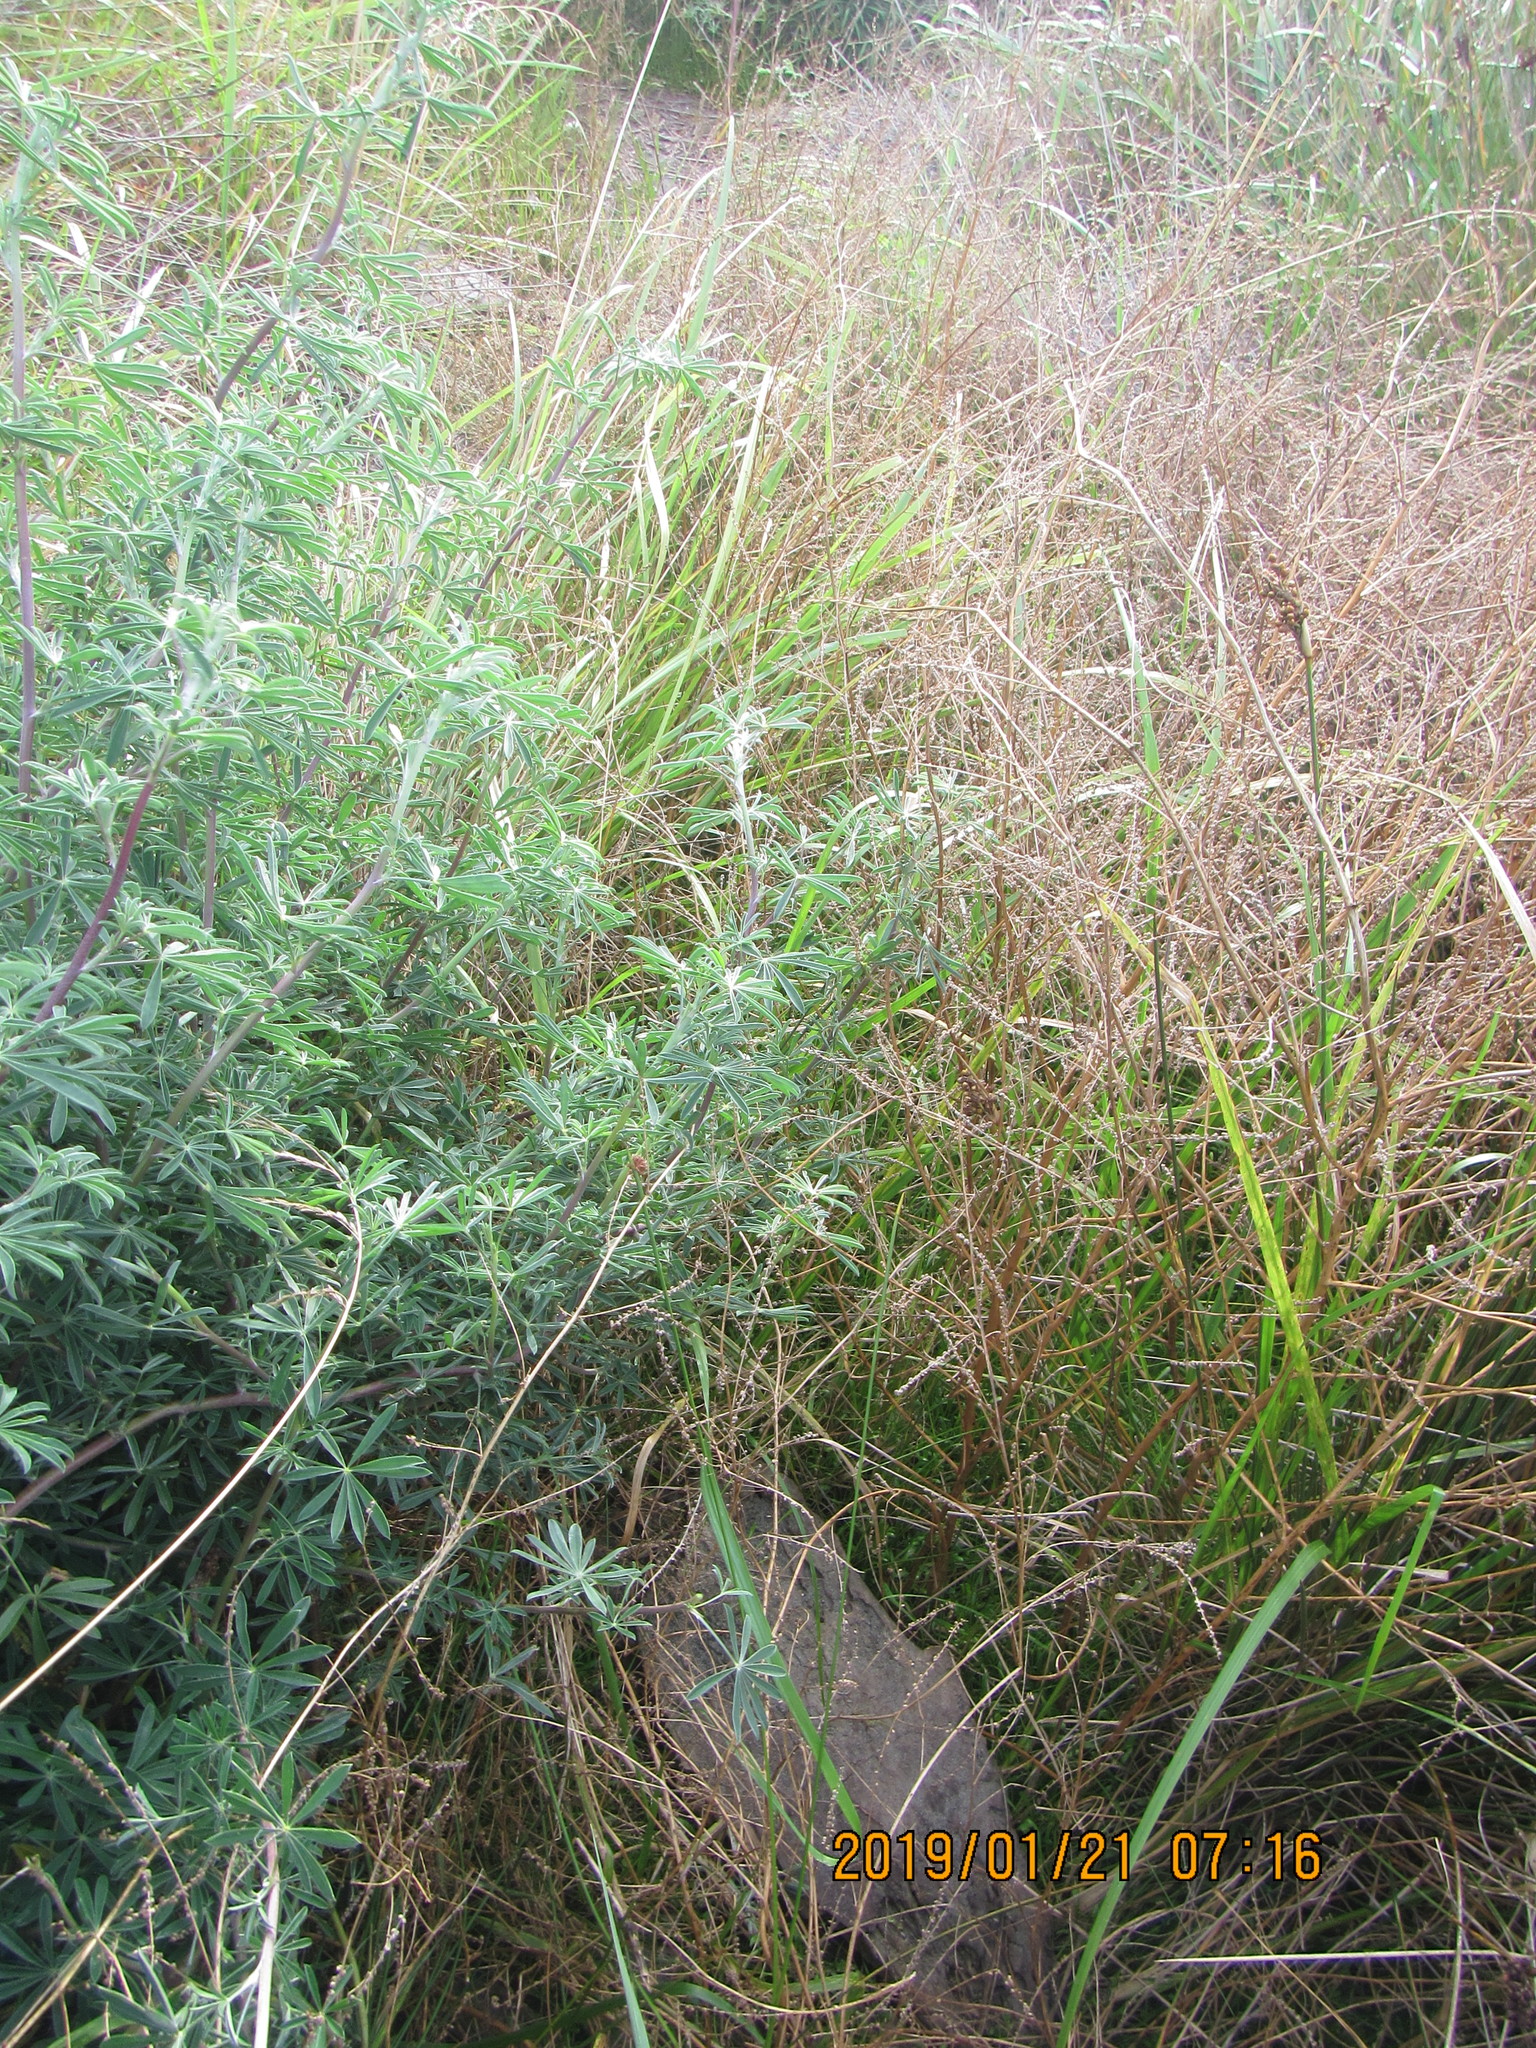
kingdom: Animalia
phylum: Mollusca
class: Gastropoda
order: Stylommatophora
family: Helicidae
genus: Cornu
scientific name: Cornu aspersum
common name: Brown garden snail
